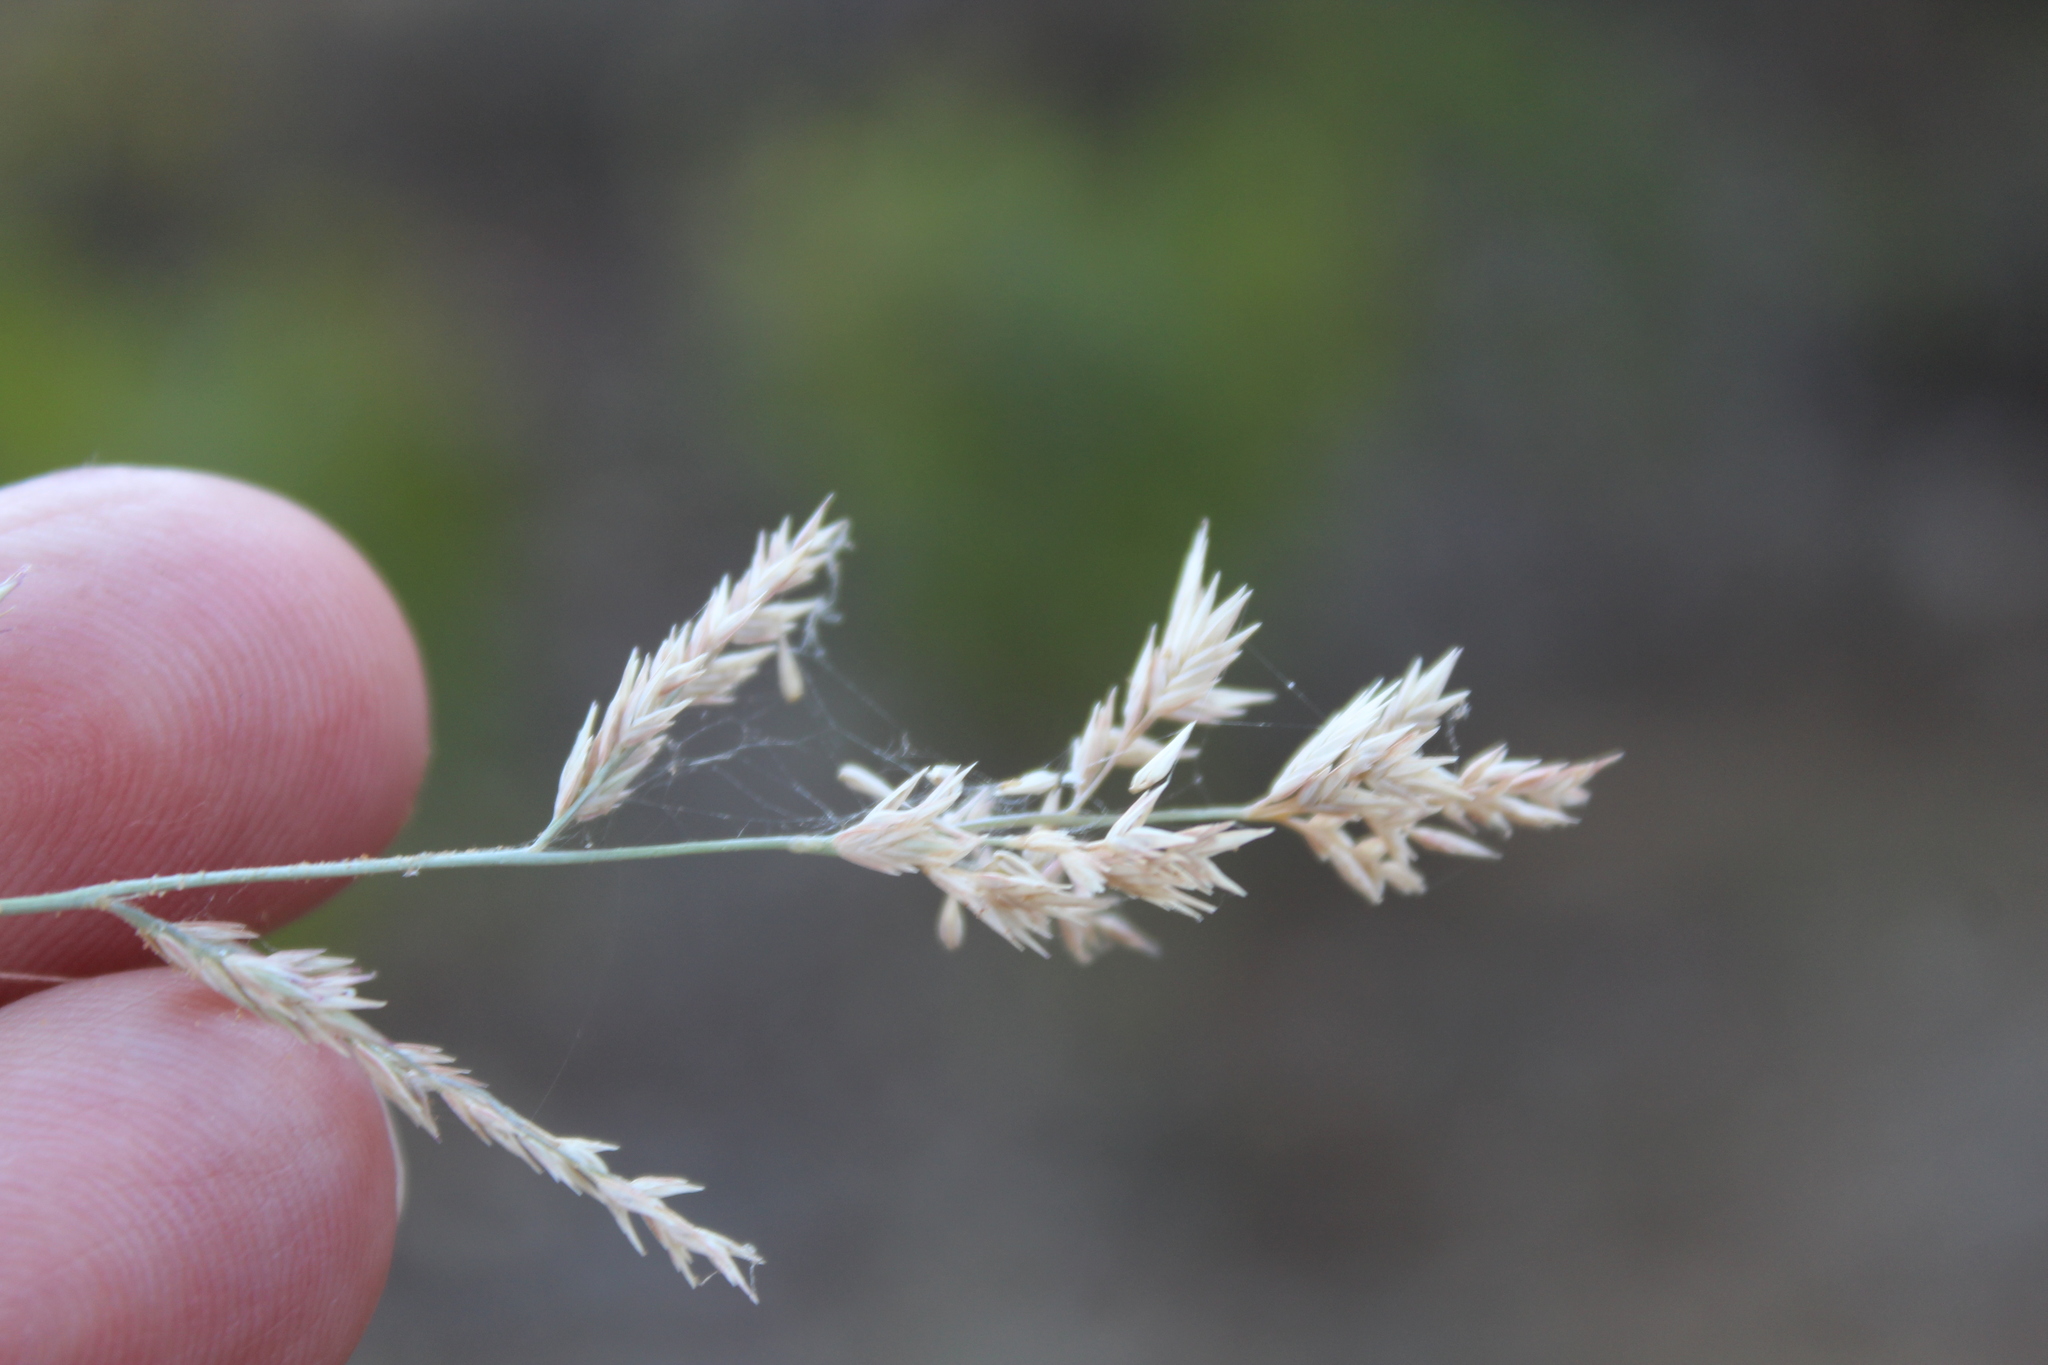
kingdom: Plantae
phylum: Tracheophyta
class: Liliopsida
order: Poales
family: Poaceae
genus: Eragrostis
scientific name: Eragrostis secundiflora
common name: Red love grass
